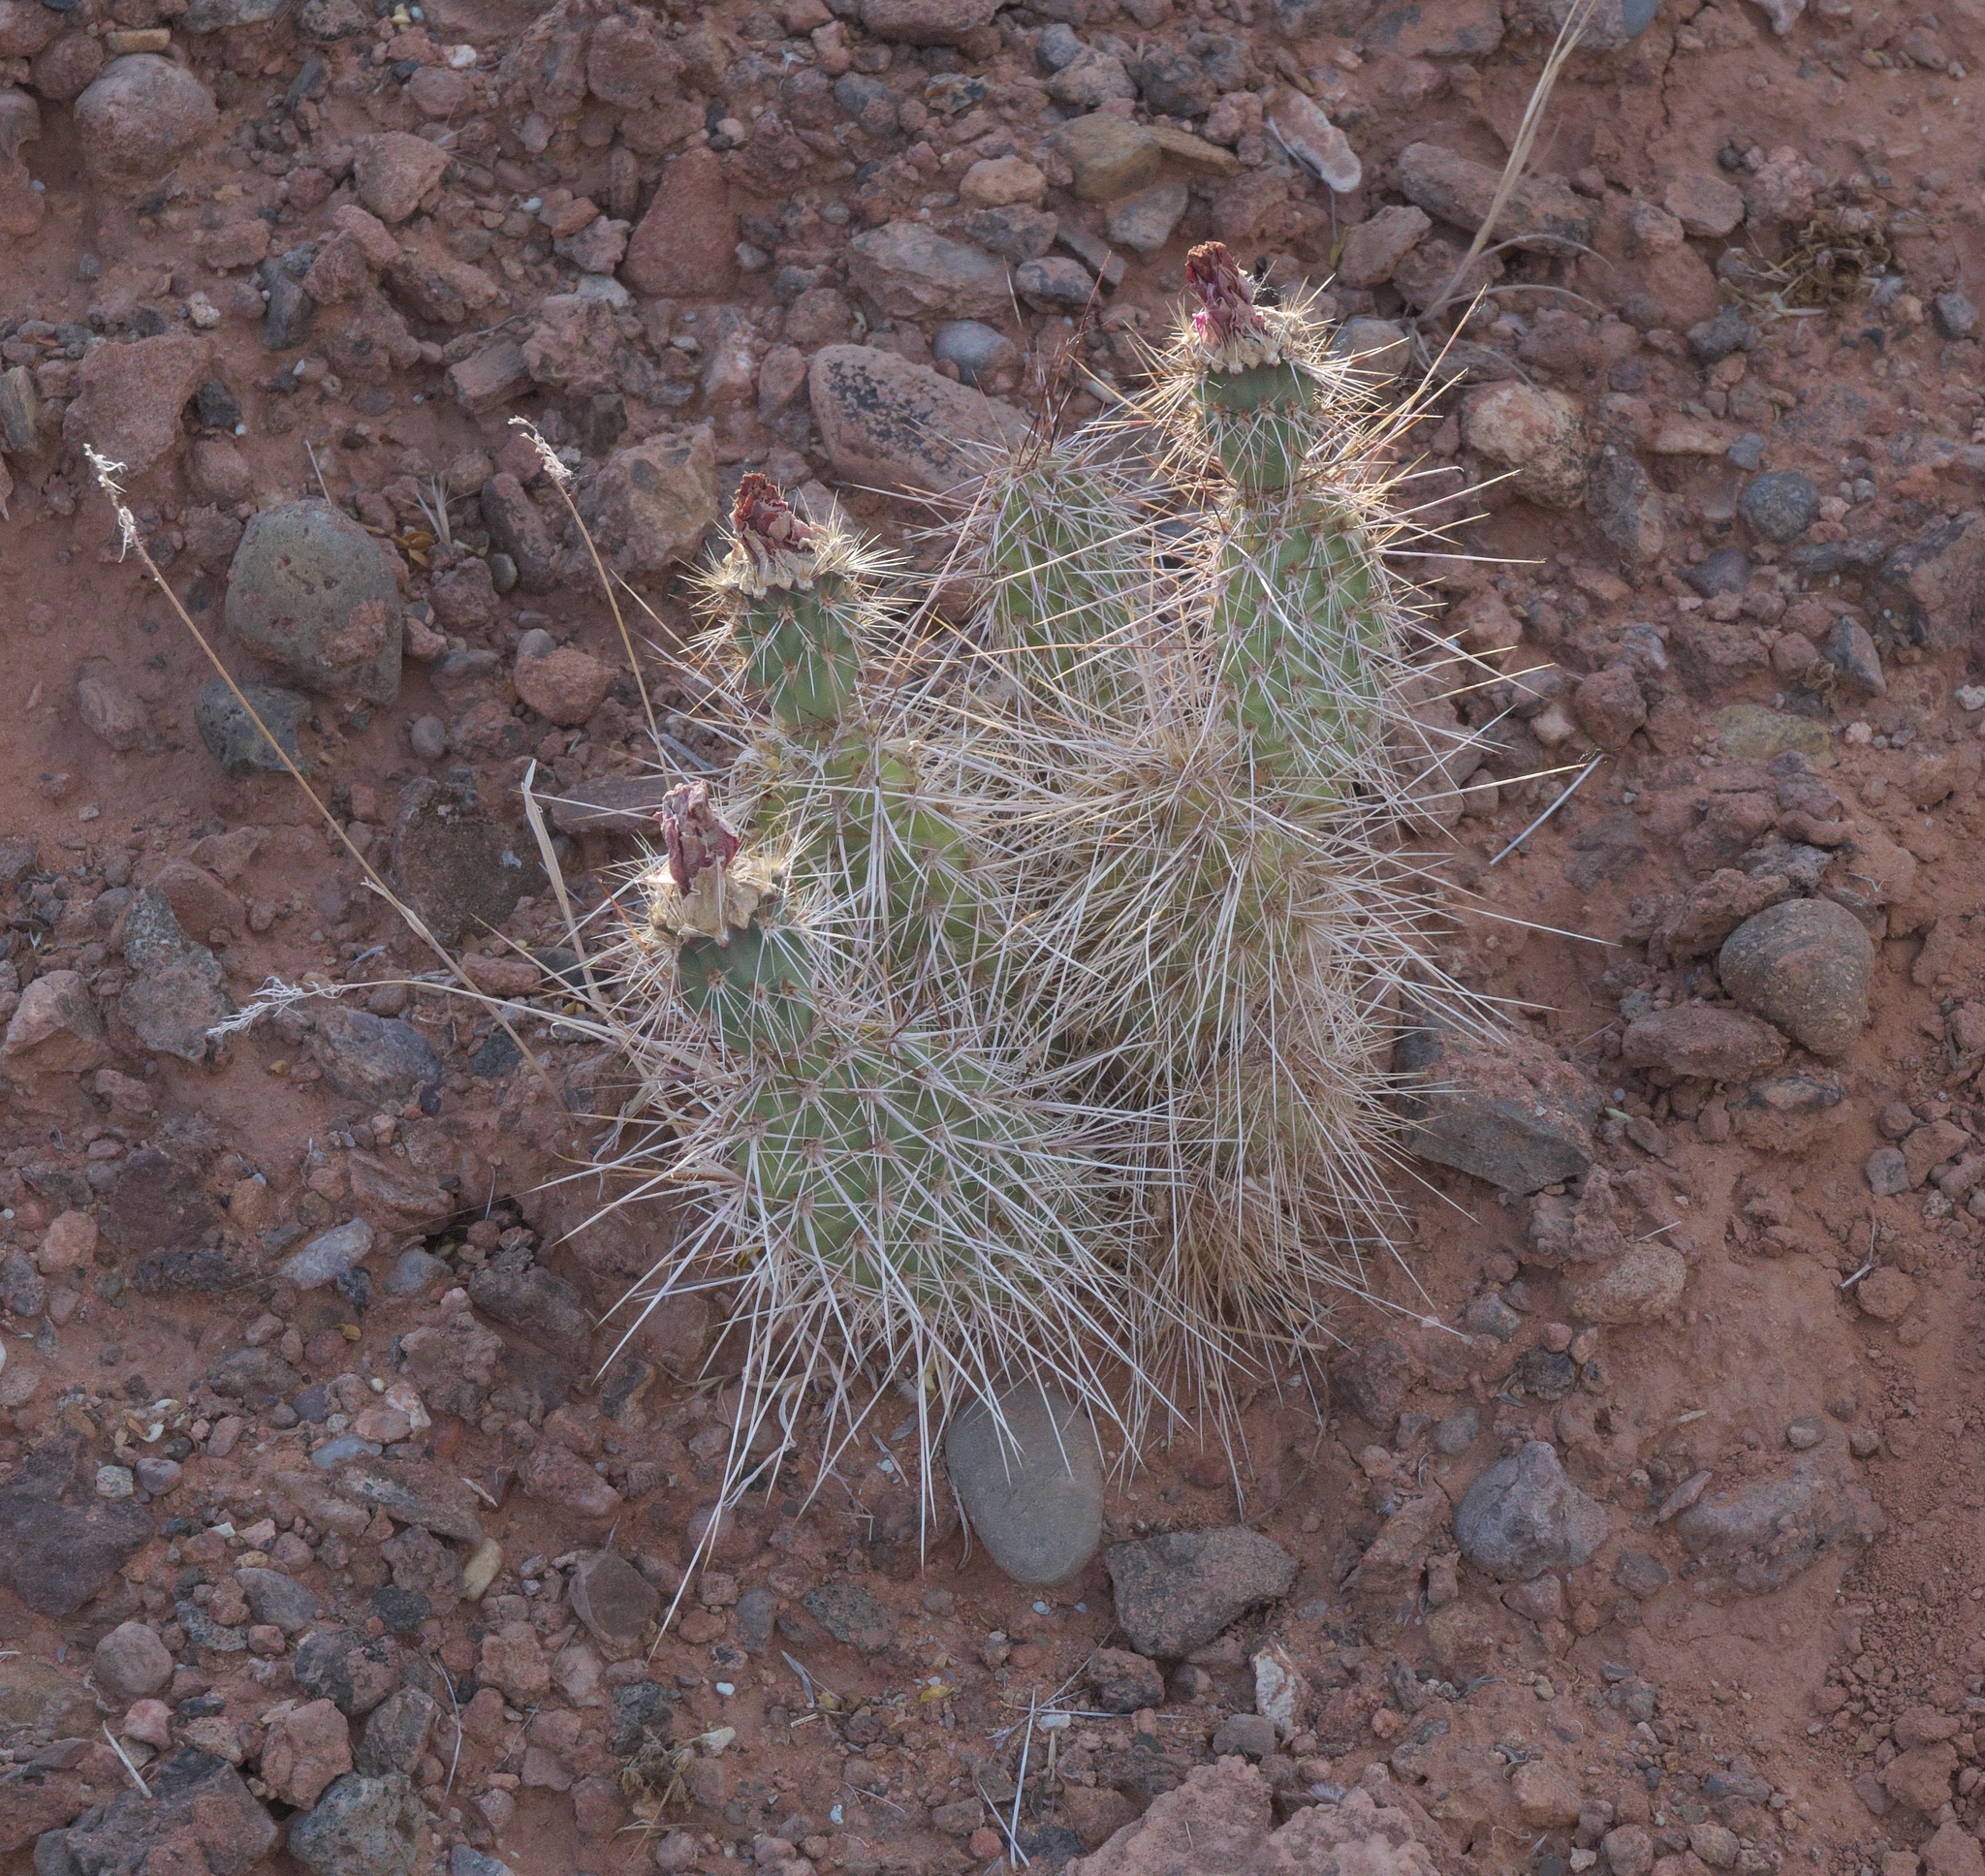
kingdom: Plantae
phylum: Tracheophyta
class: Magnoliopsida
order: Caryophyllales
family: Cactaceae
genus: Opuntia
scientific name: Opuntia polyacantha
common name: Plains prickly-pear
